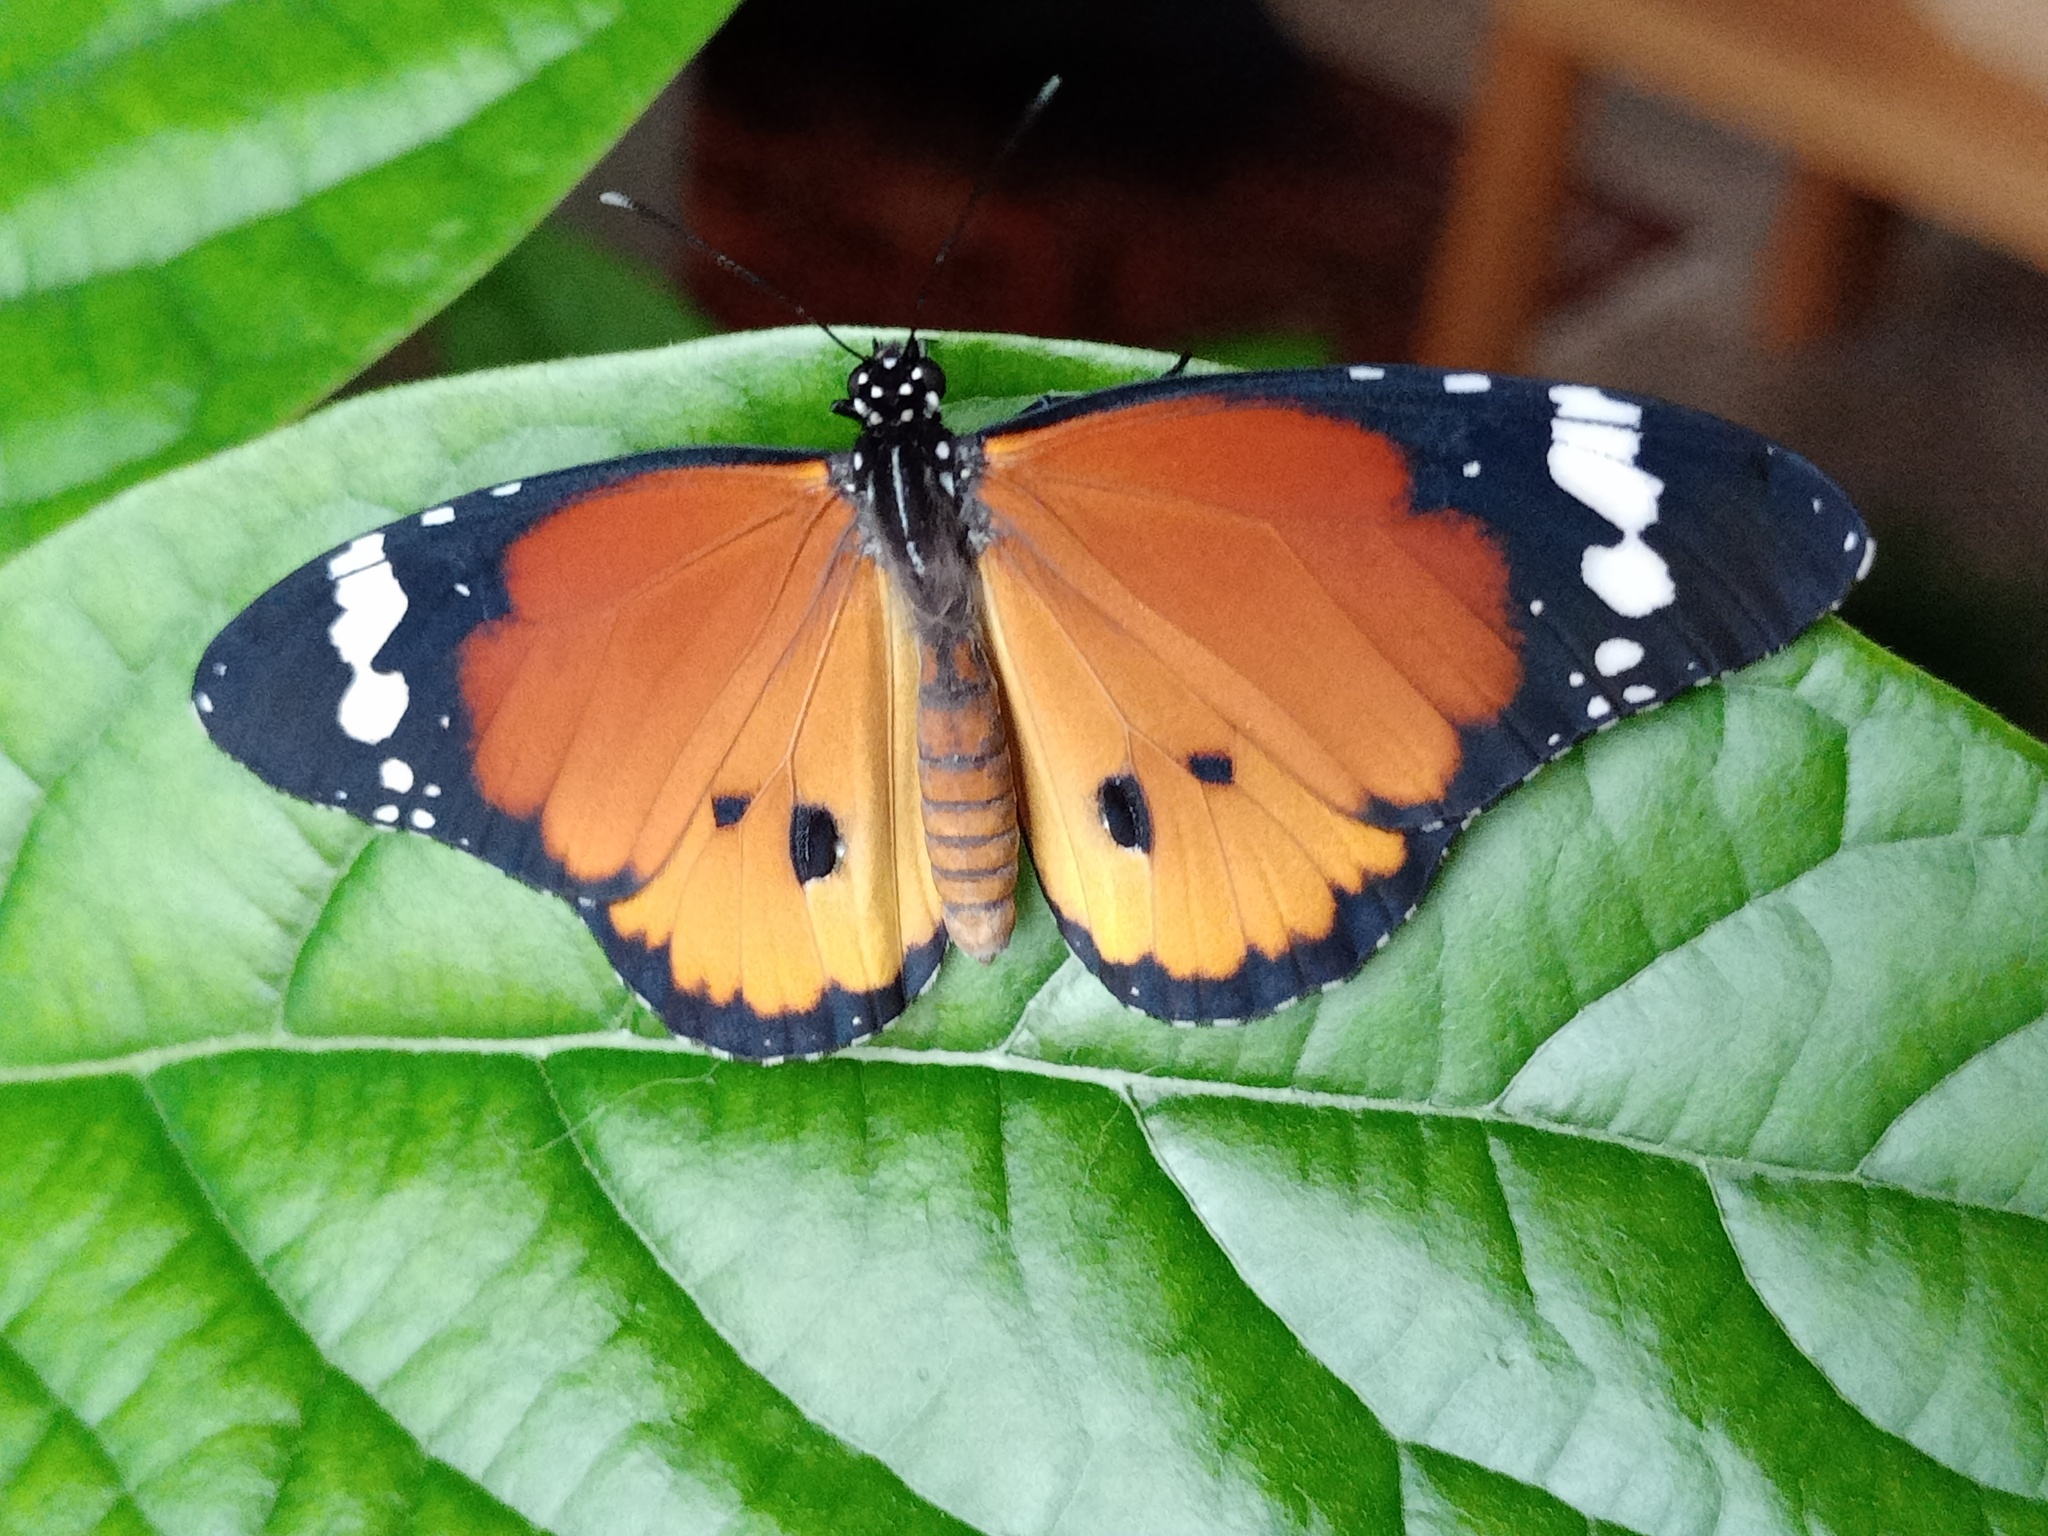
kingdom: Animalia
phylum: Arthropoda
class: Insecta
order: Lepidoptera
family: Nymphalidae
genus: Danaus
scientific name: Danaus chrysippus
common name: Plain tiger
